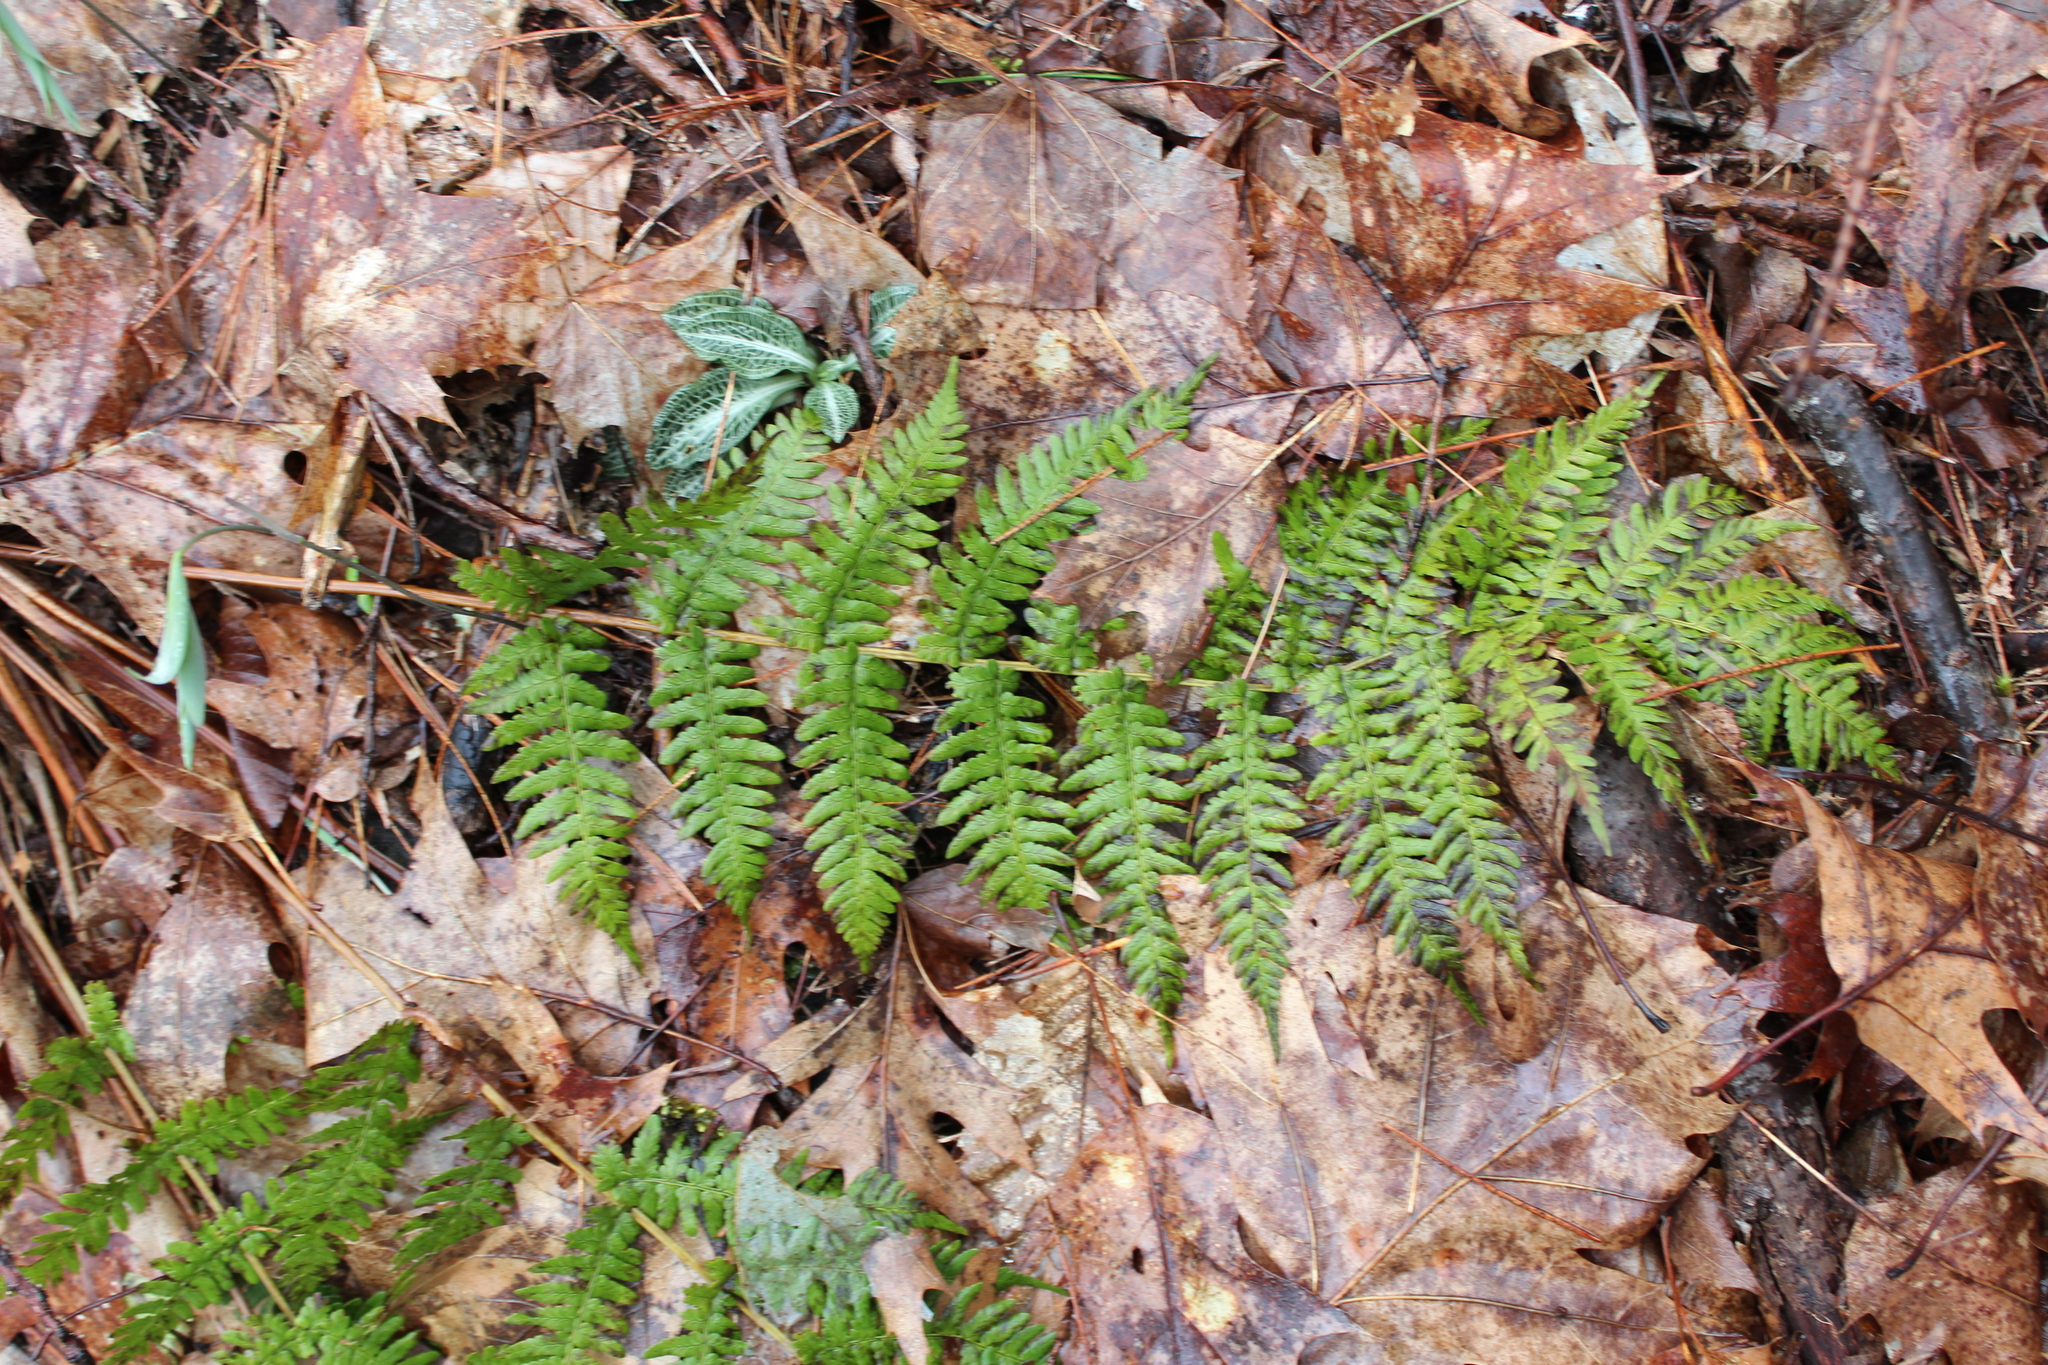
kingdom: Plantae
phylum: Tracheophyta
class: Polypodiopsida
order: Polypodiales
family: Dryopteridaceae
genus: Dryopteris
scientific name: Dryopteris marginalis
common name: Marginal wood fern
